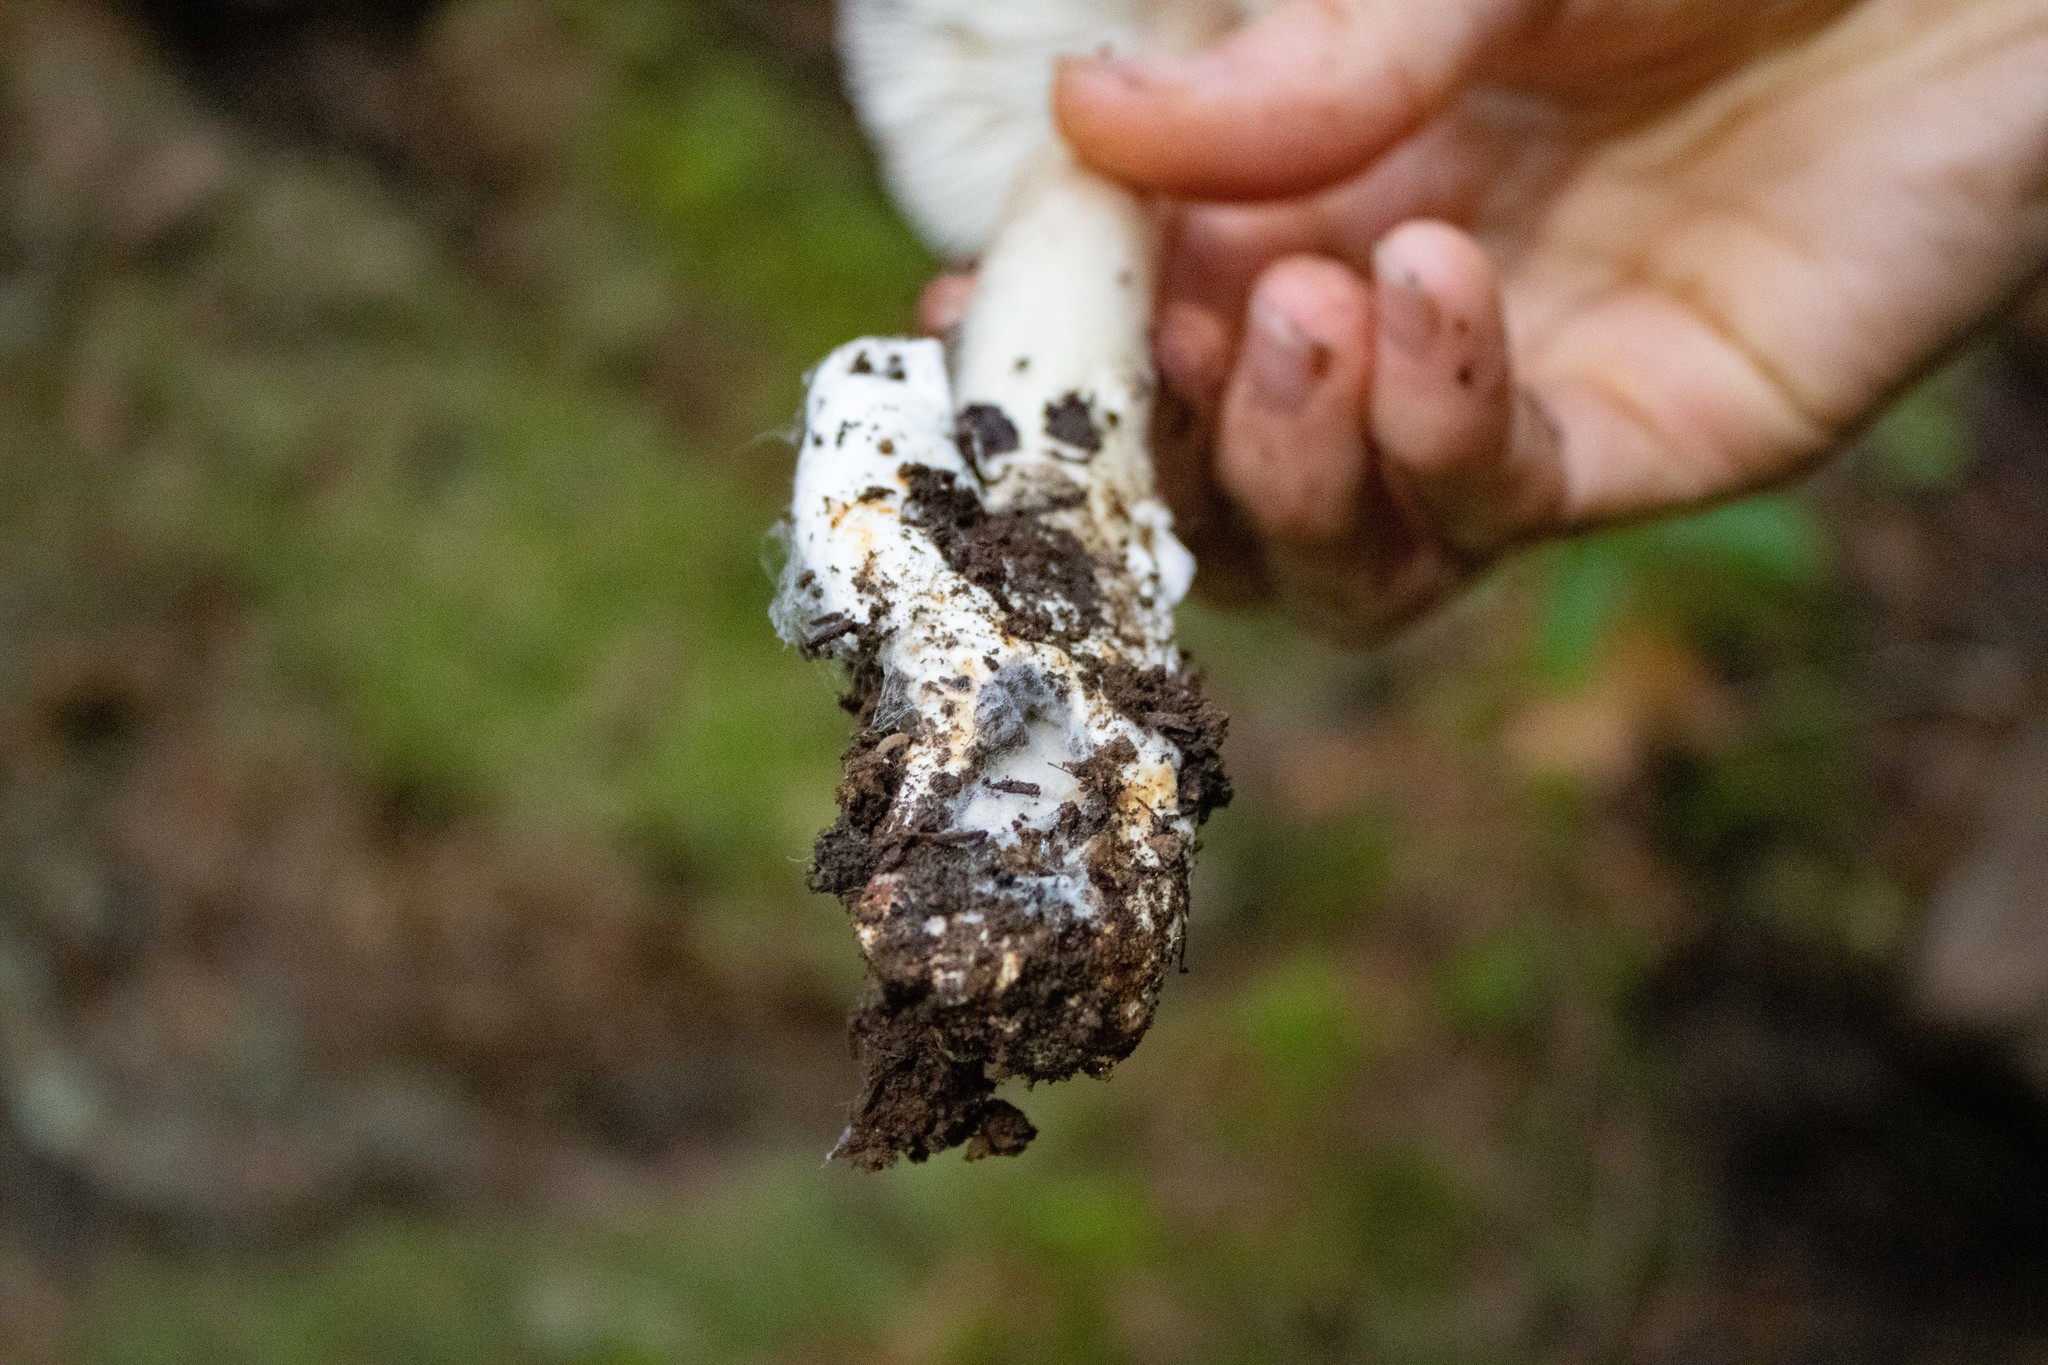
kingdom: Fungi
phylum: Basidiomycota
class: Agaricomycetes
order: Agaricales
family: Amanitaceae
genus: Amanita
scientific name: Amanita pachycolea
